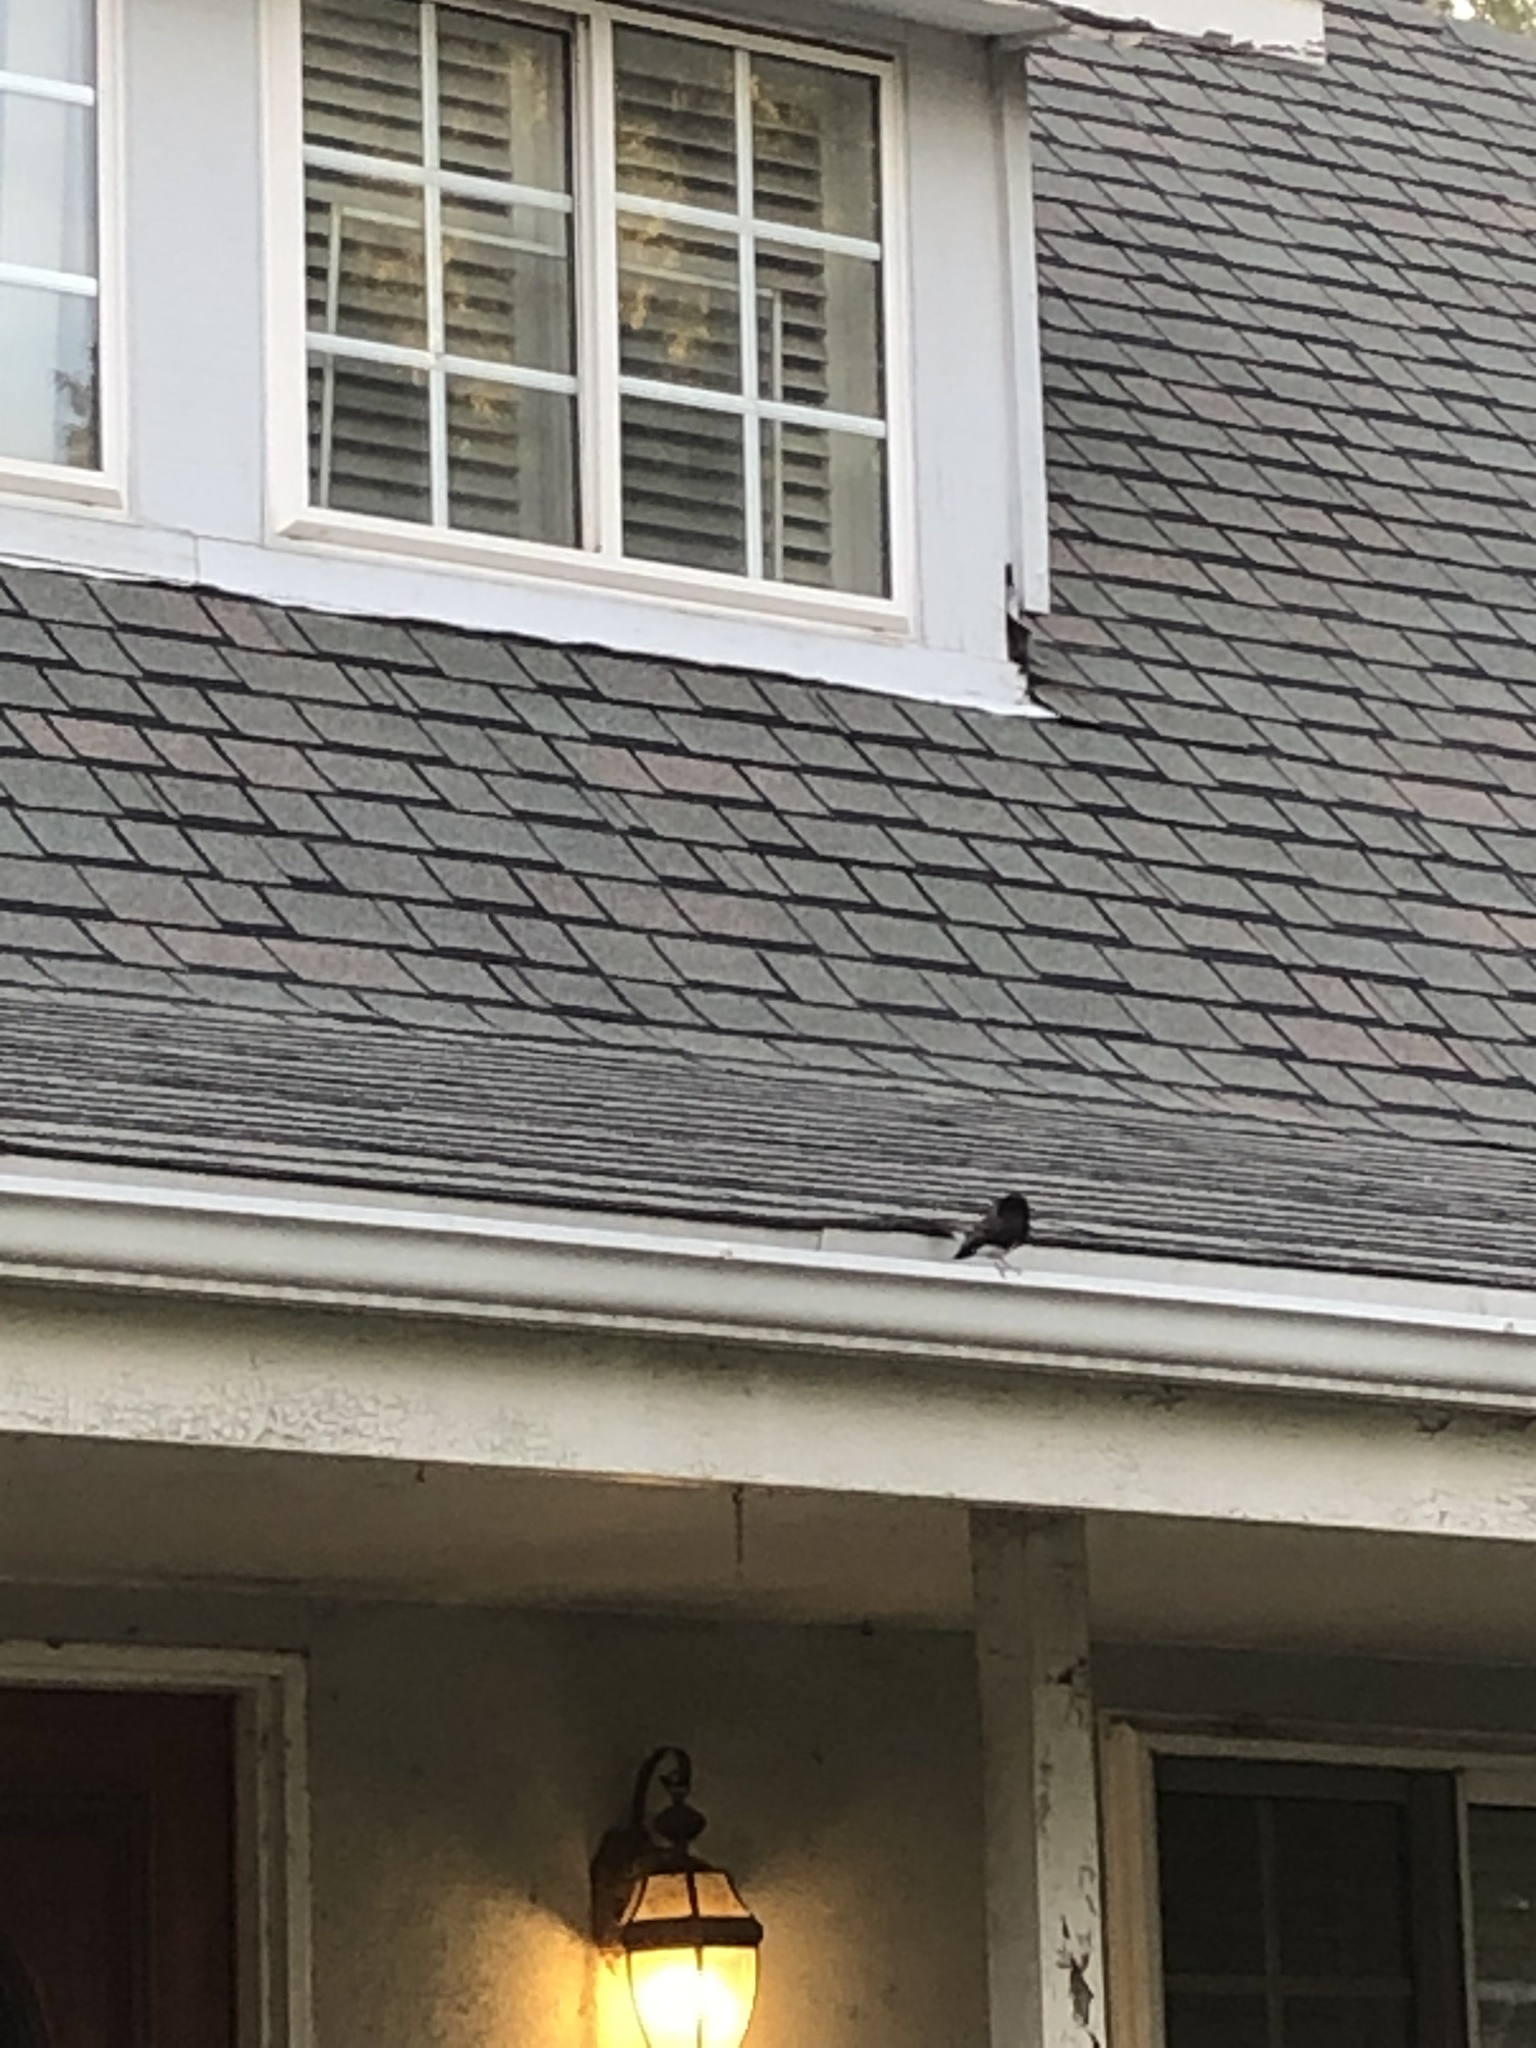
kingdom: Animalia
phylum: Chordata
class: Aves
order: Passeriformes
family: Tyrannidae
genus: Sayornis
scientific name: Sayornis nigricans
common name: Black phoebe
